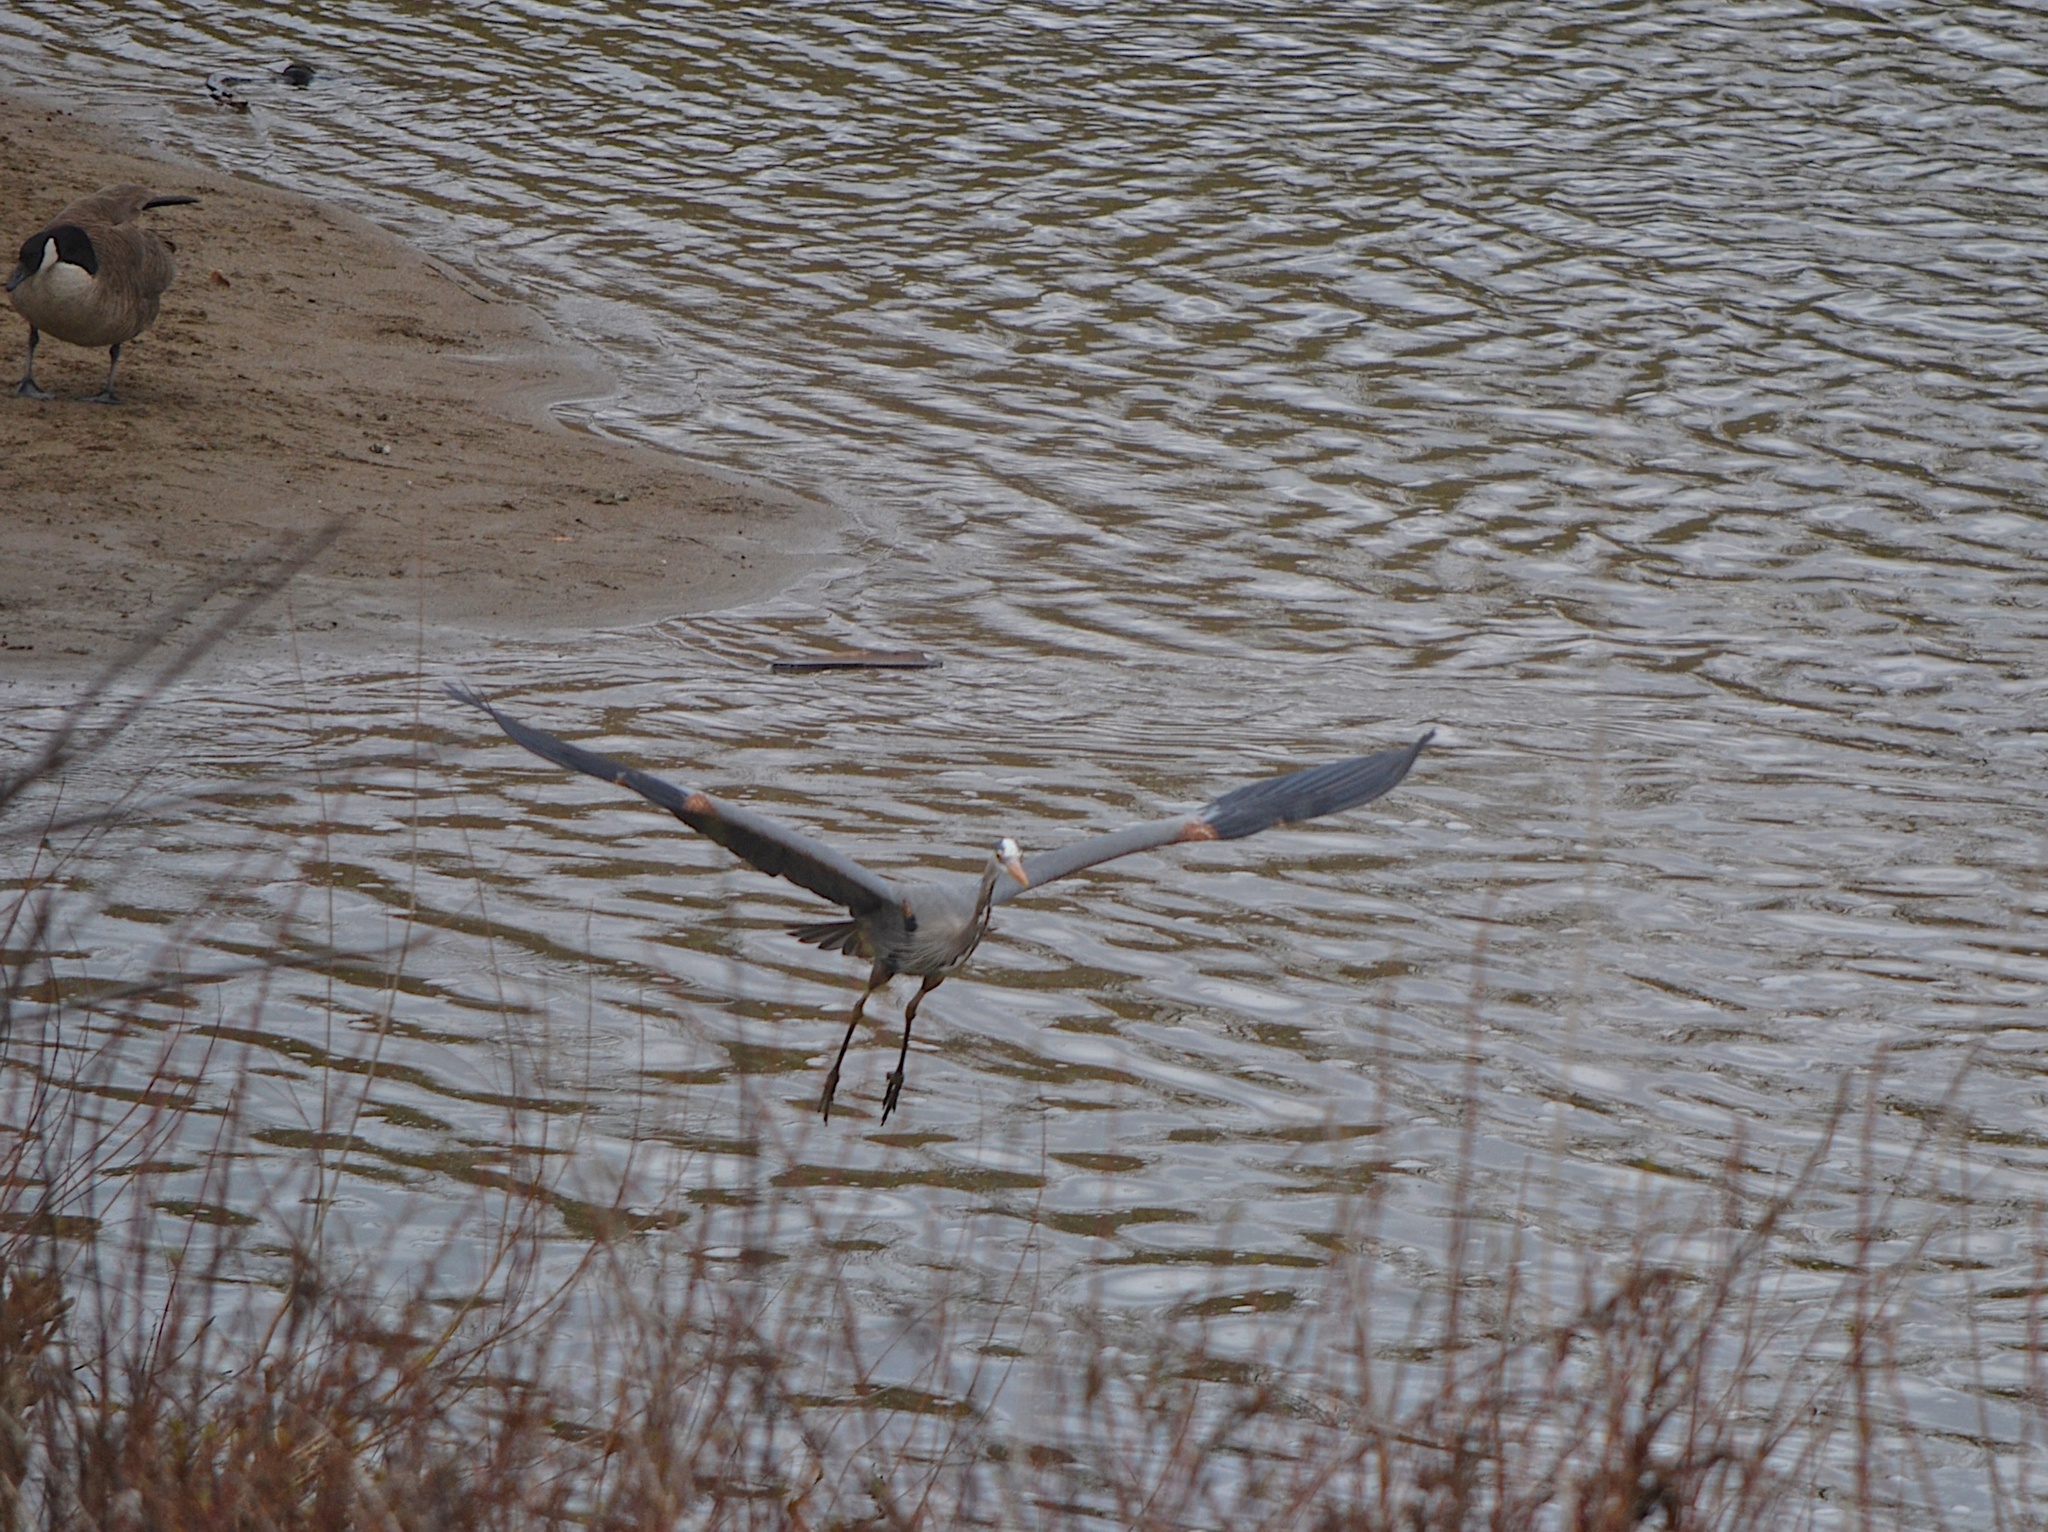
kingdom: Animalia
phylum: Chordata
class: Aves
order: Pelecaniformes
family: Ardeidae
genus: Ardea
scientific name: Ardea herodias
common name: Great blue heron
